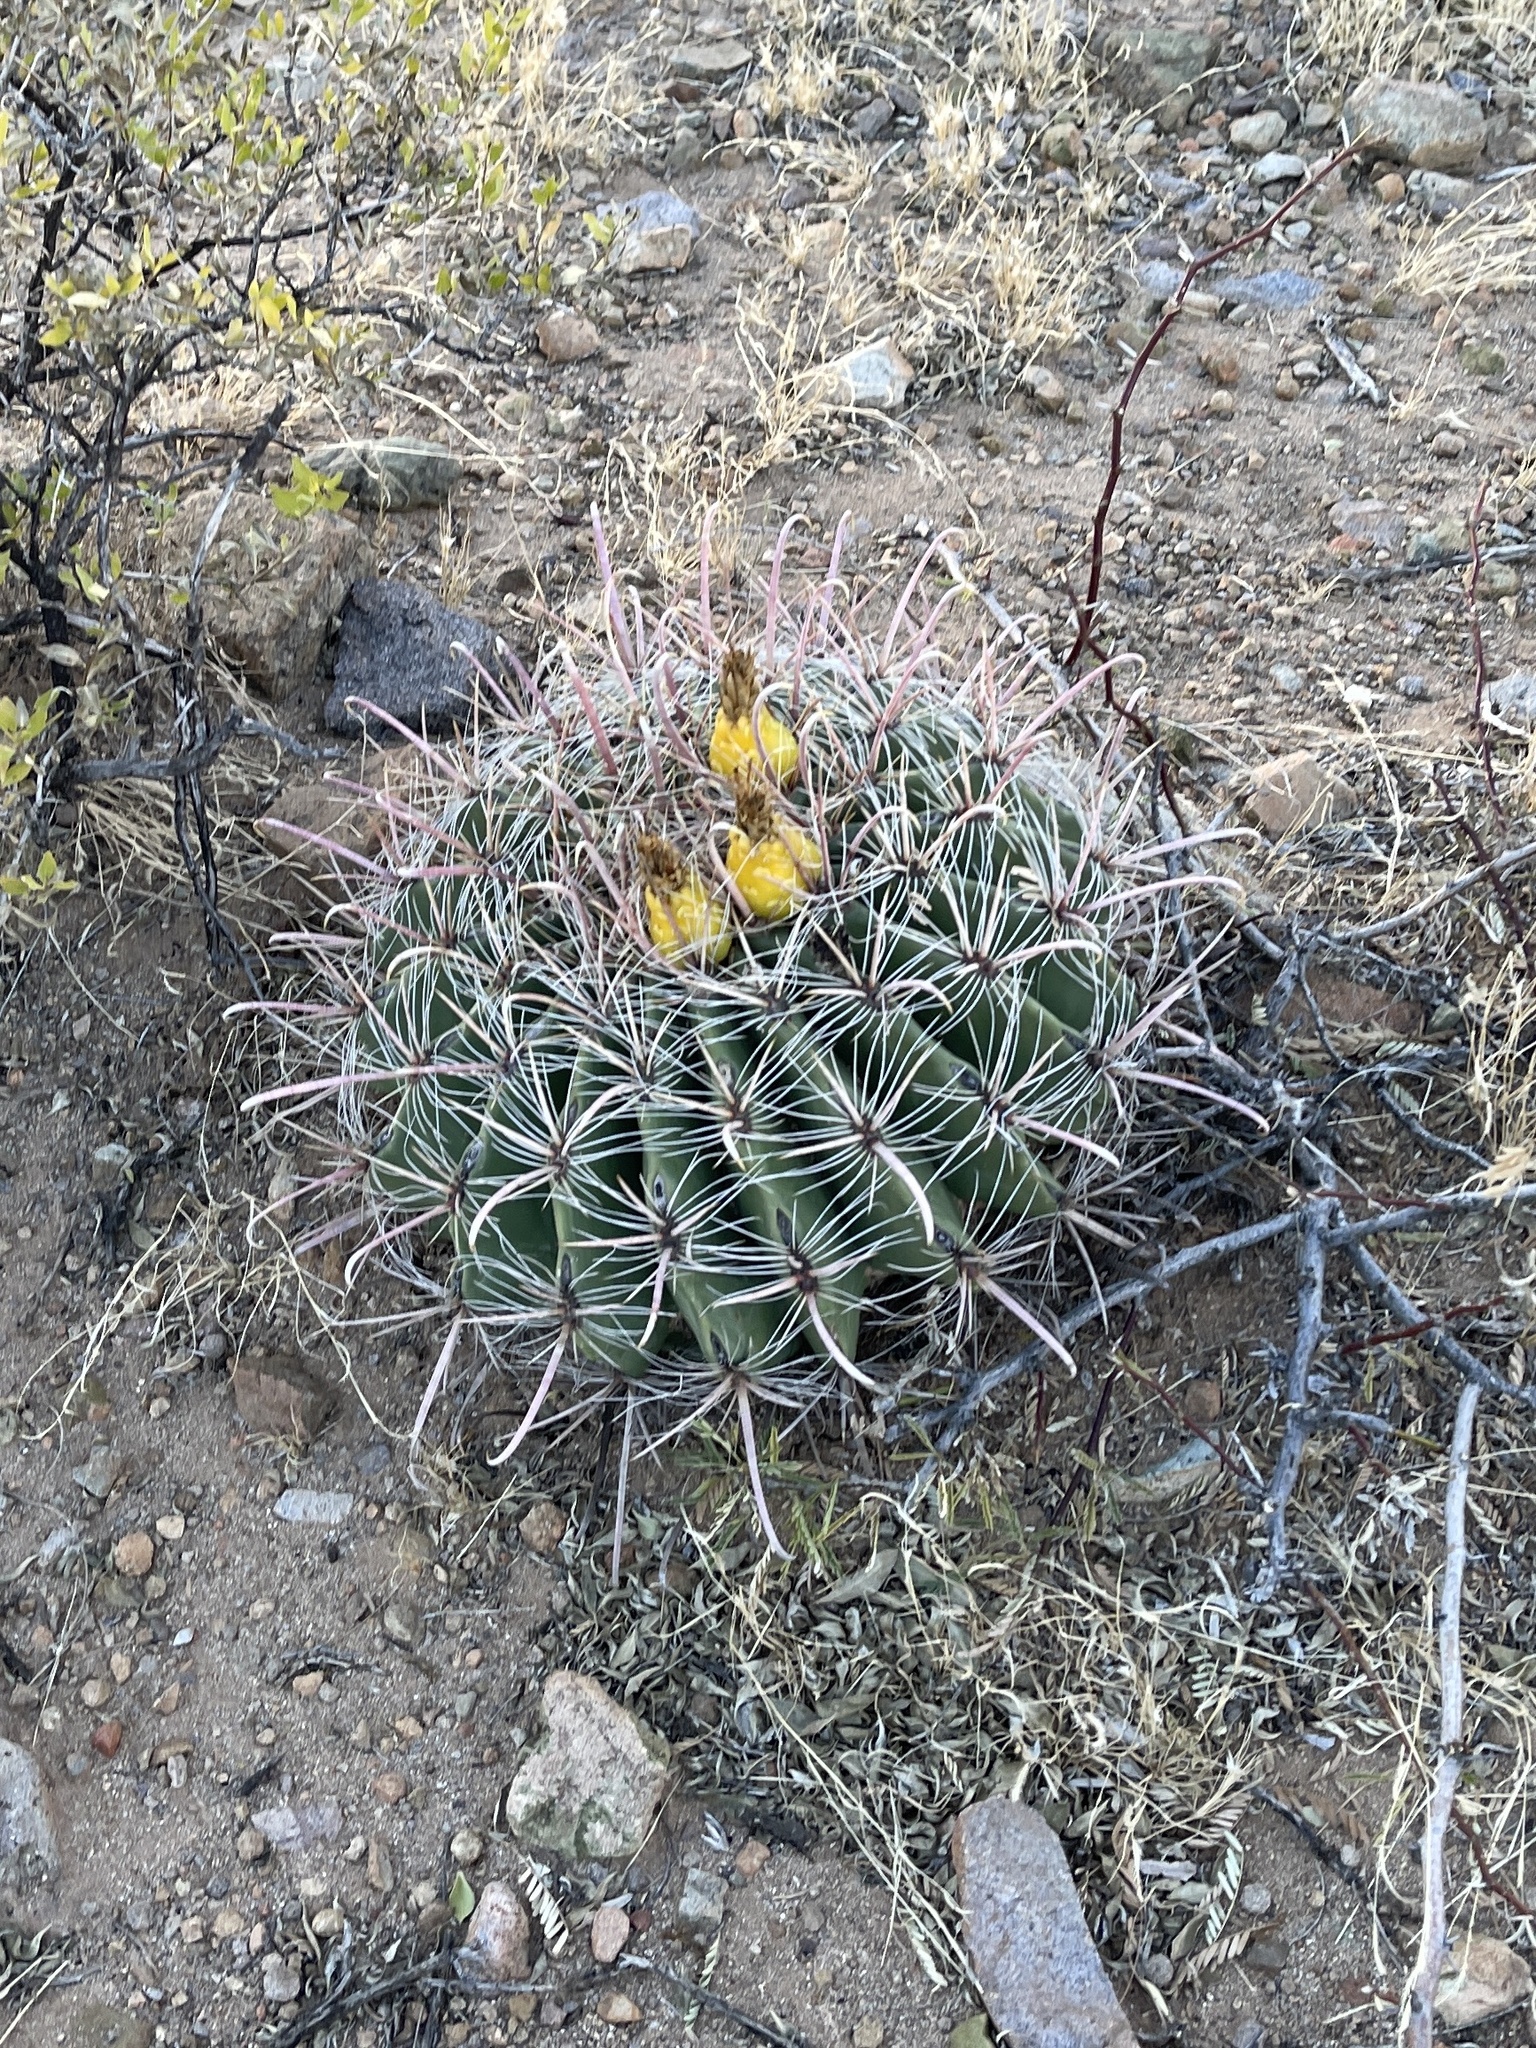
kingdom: Plantae
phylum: Tracheophyta
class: Magnoliopsida
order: Caryophyllales
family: Cactaceae
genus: Ferocactus
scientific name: Ferocactus wislizeni
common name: Candy barrel cactus
